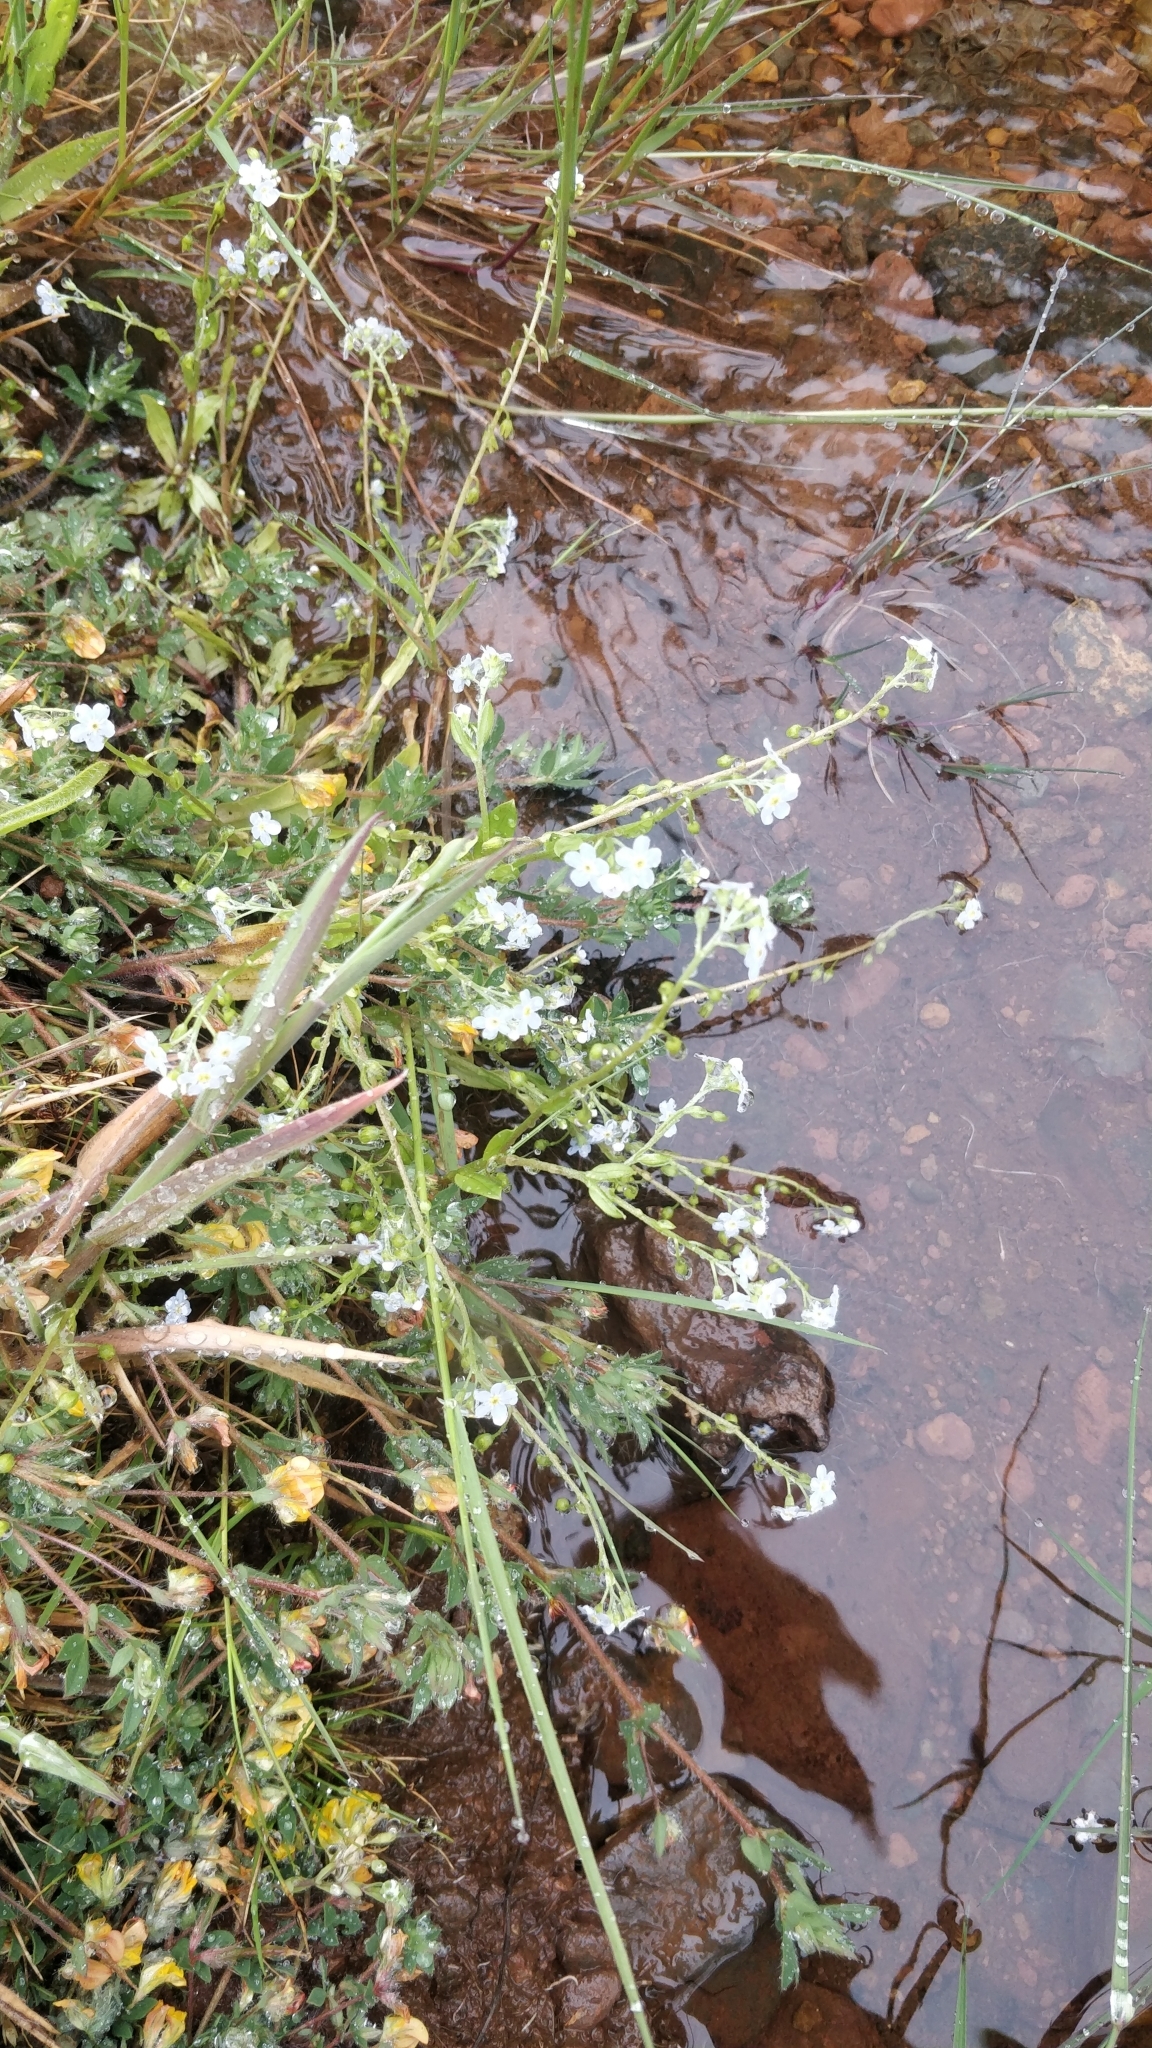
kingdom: Plantae
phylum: Tracheophyta
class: Magnoliopsida
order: Boraginales
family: Boraginaceae
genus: Myosotis
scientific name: Myosotis stolonifera
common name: Pale forget-me-not
